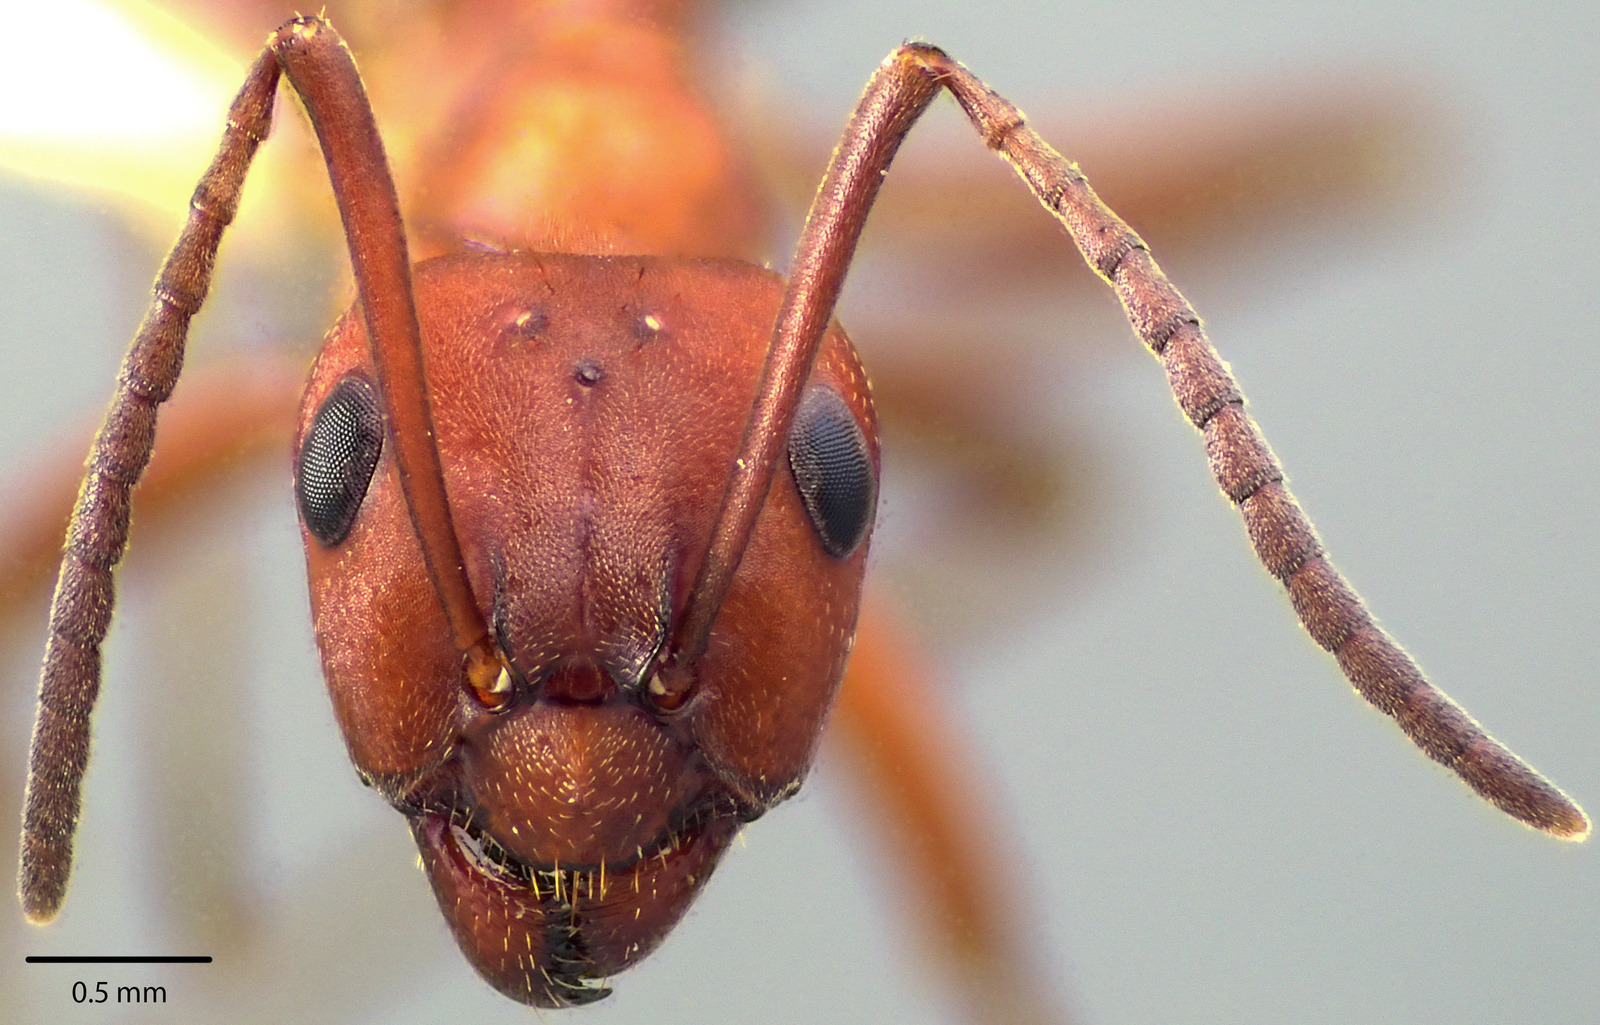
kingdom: Animalia
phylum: Arthropoda
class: Insecta
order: Hymenoptera
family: Formicidae
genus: Formica
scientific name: Formica subintegra
